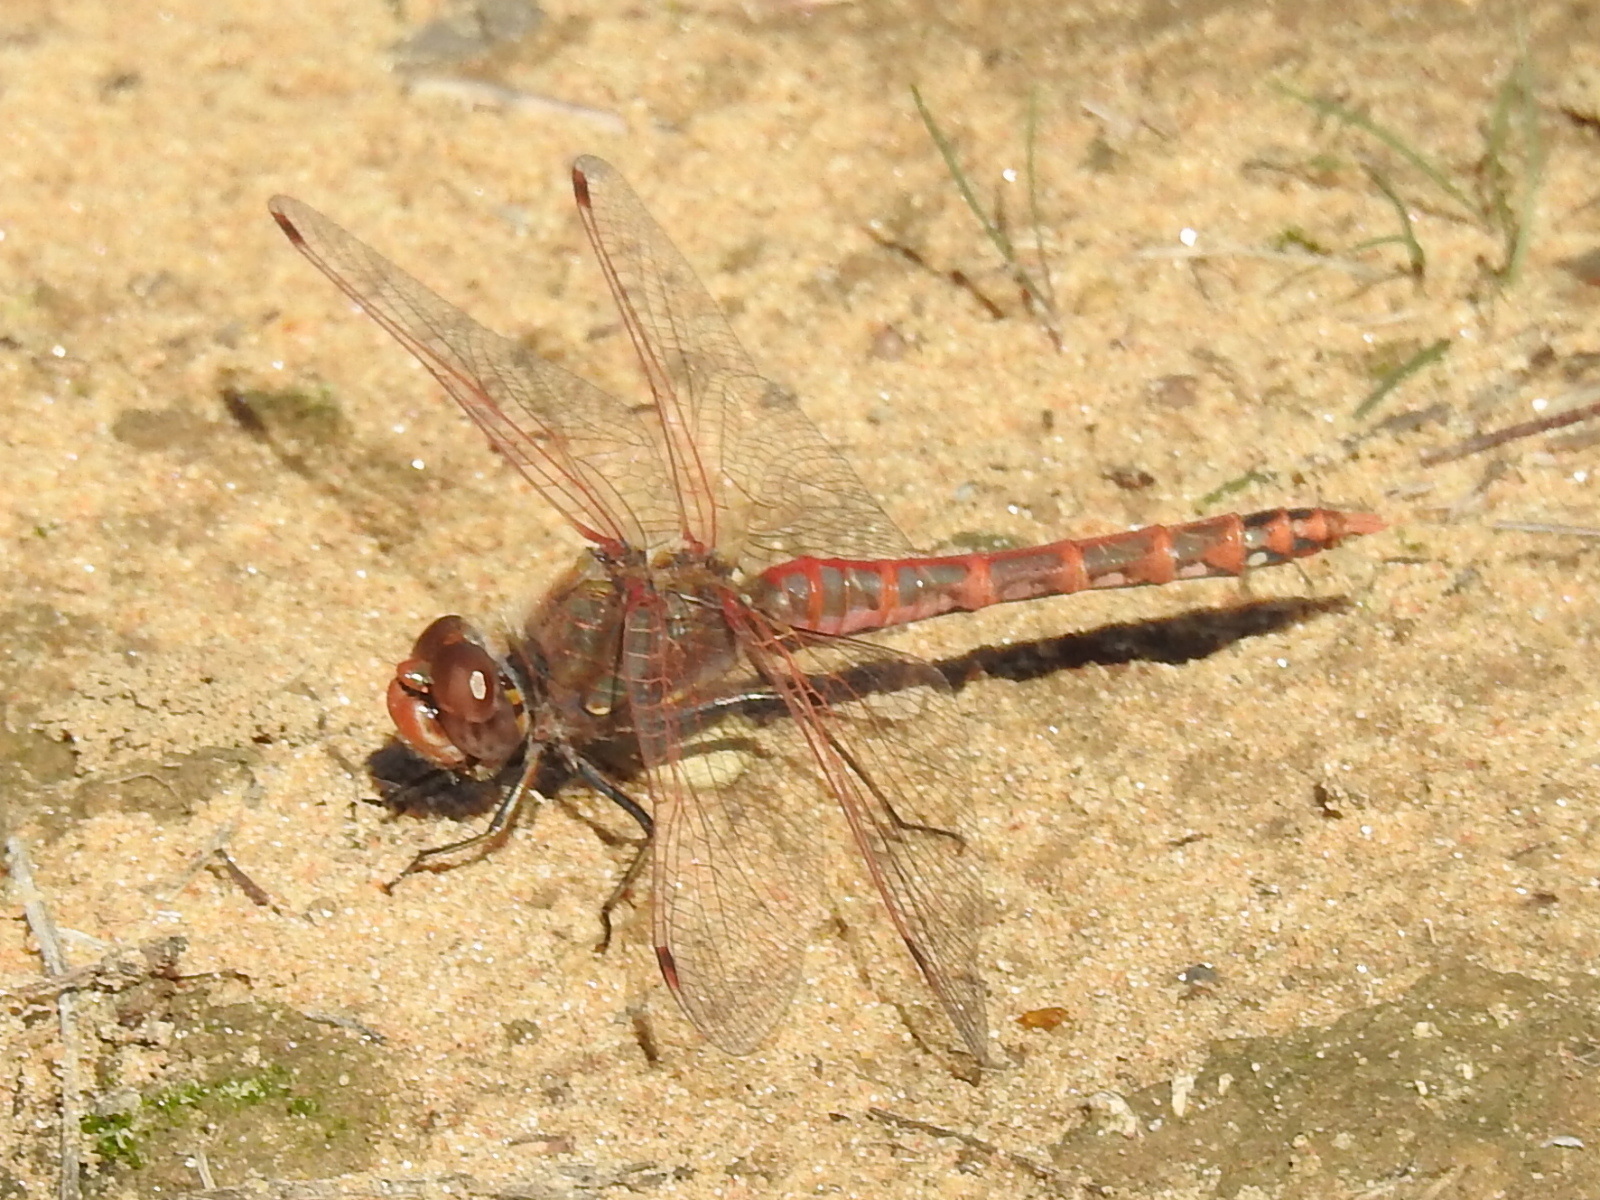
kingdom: Animalia
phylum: Arthropoda
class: Insecta
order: Odonata
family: Libellulidae
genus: Sympetrum
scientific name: Sympetrum corruptum
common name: Variegated meadowhawk
